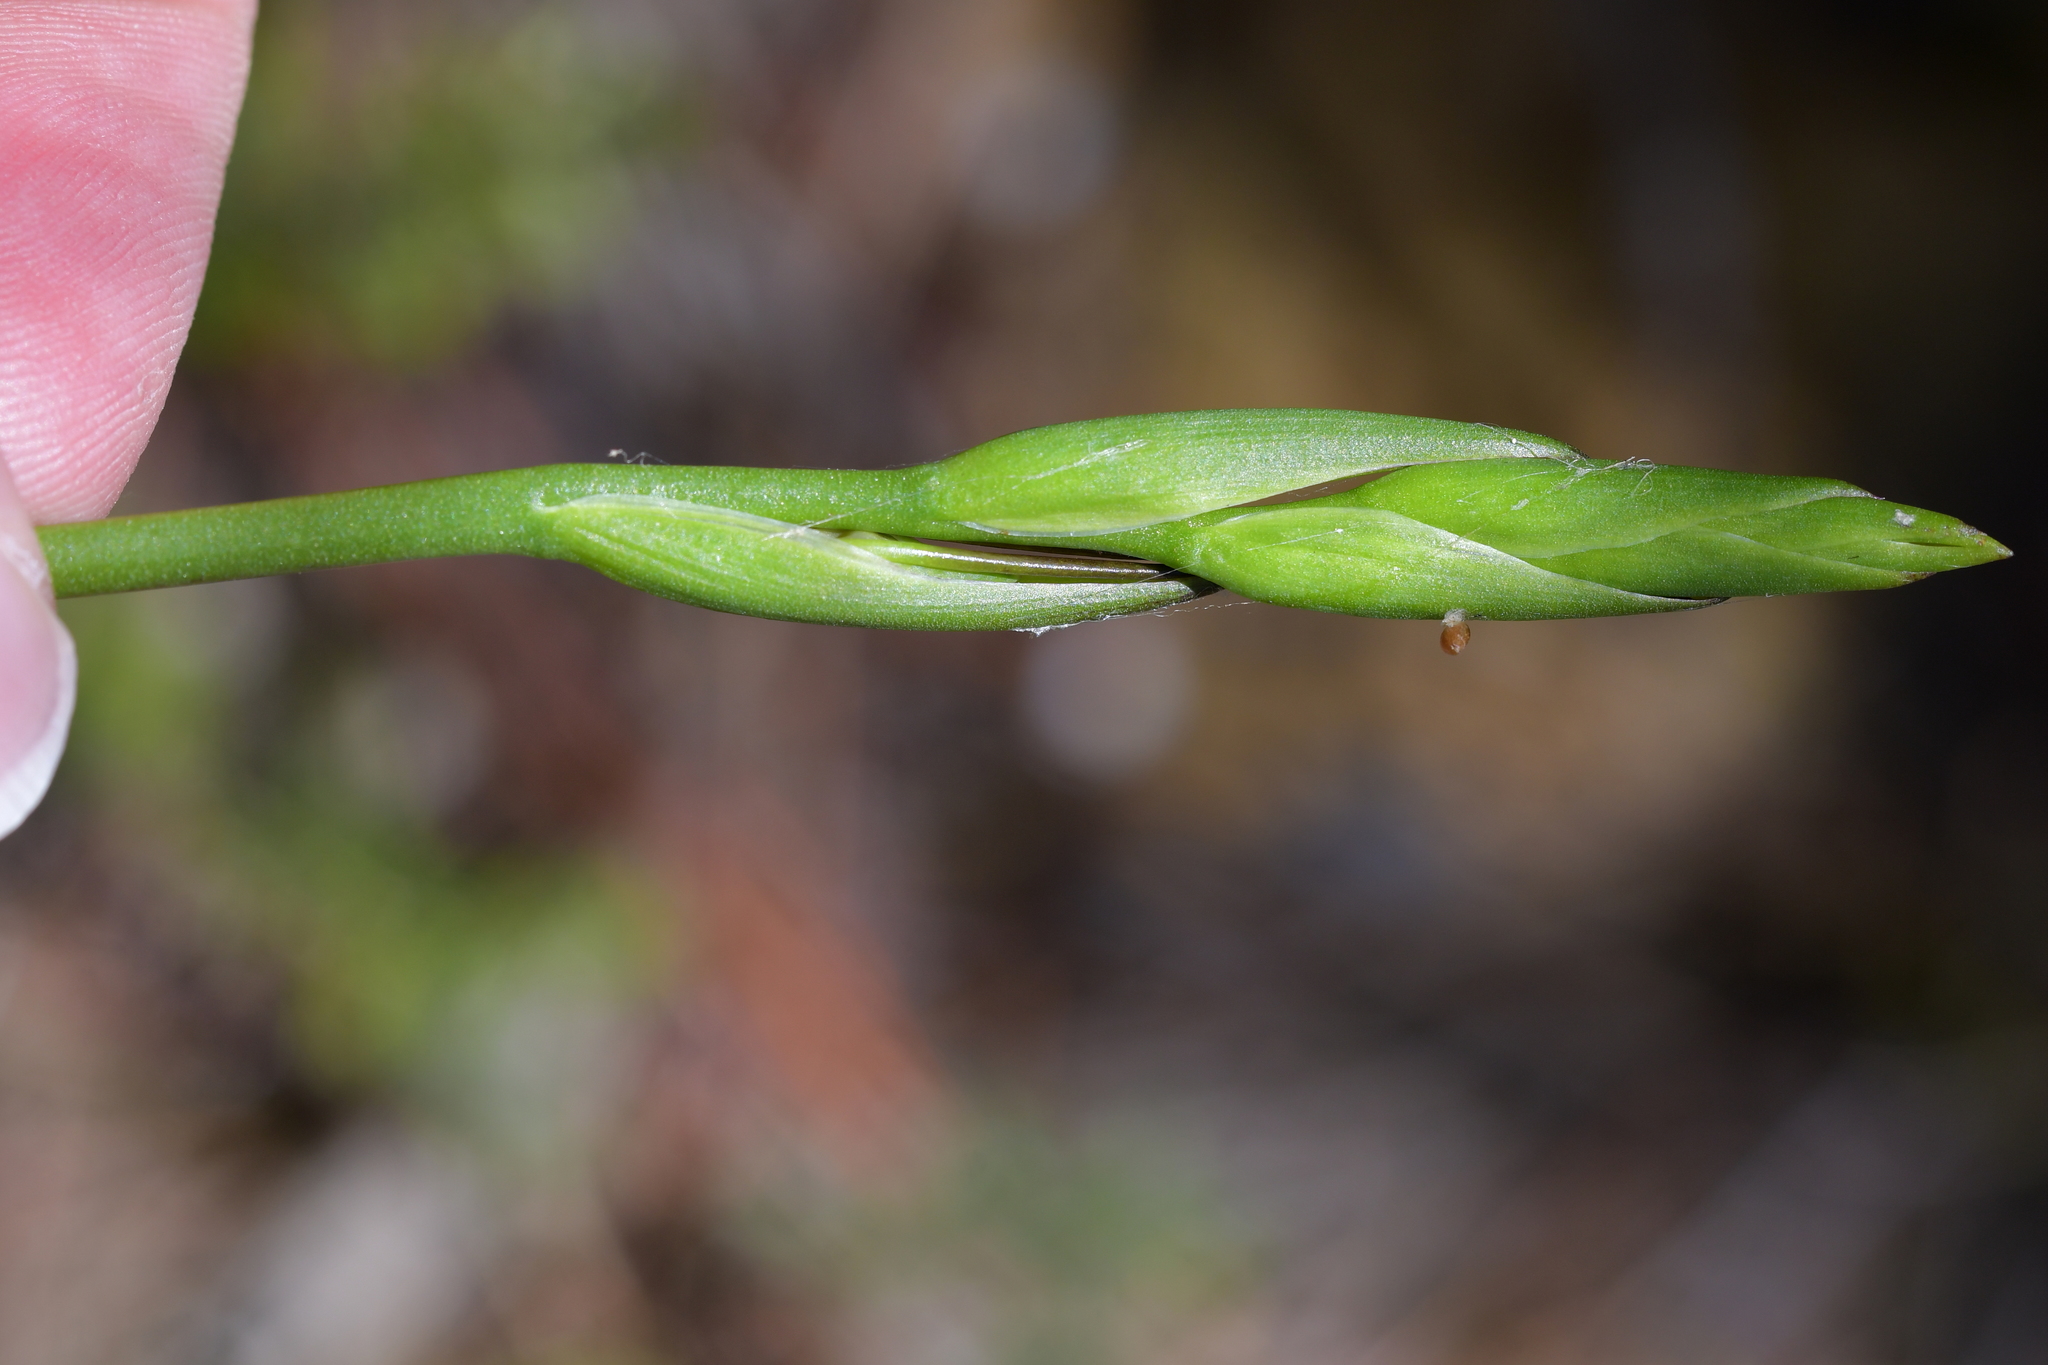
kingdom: Plantae
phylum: Tracheophyta
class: Liliopsida
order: Asparagales
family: Orchidaceae
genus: Orthoceras
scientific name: Orthoceras novae-zeelandiae
